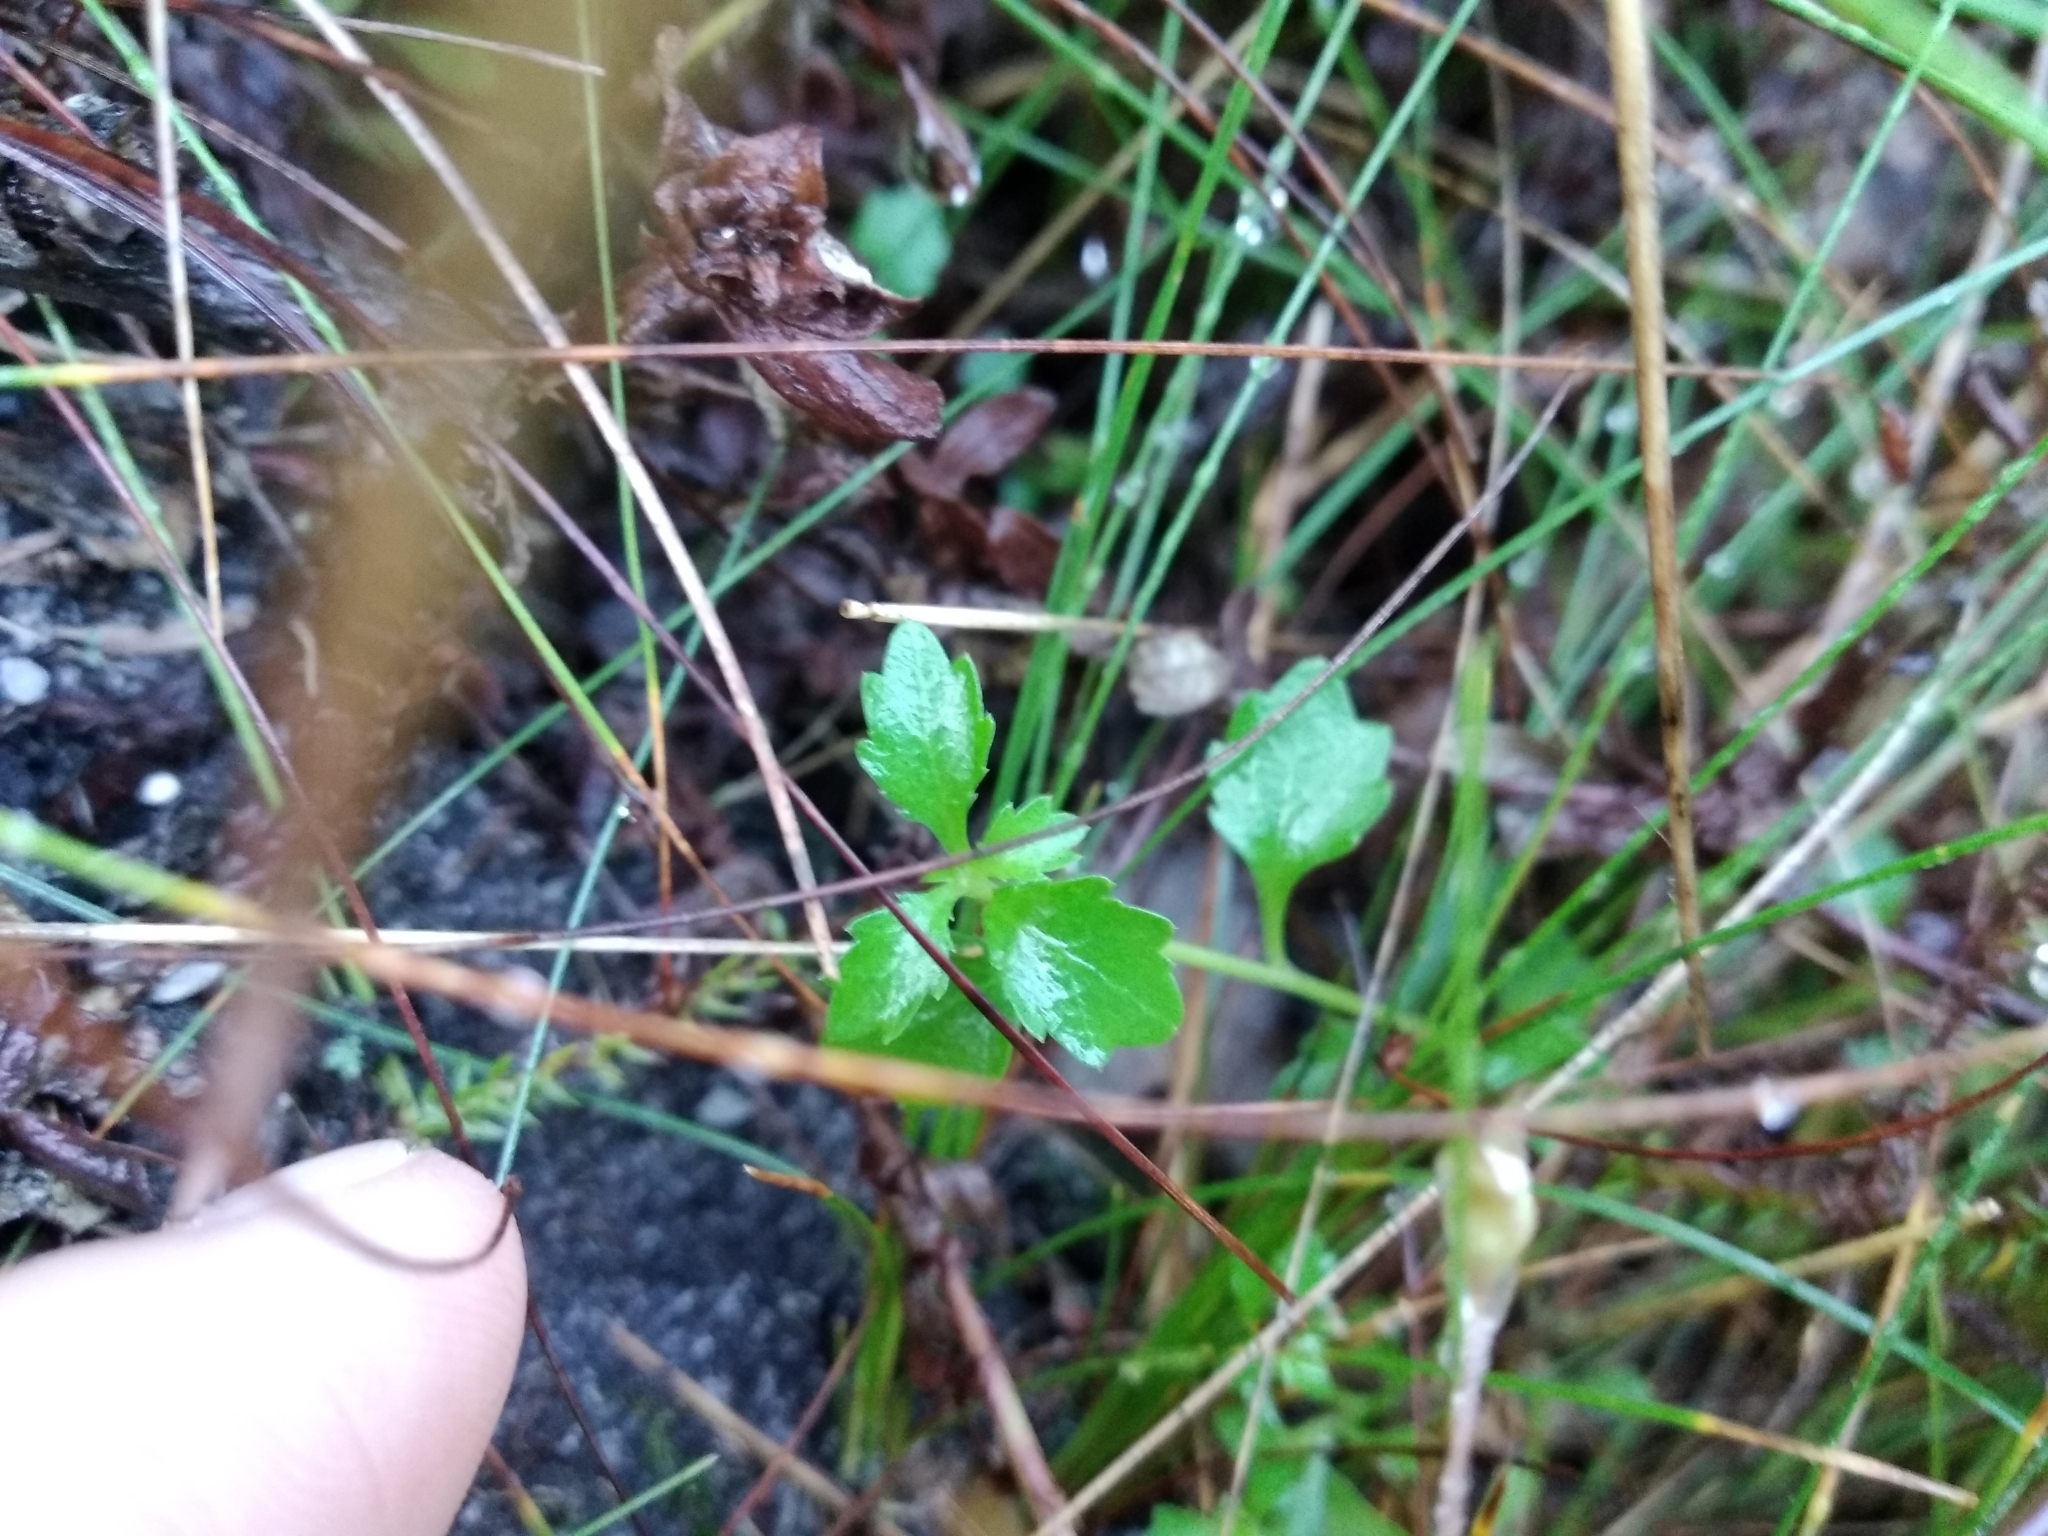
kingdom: Plantae
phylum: Tracheophyta
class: Magnoliopsida
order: Asterales
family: Campanulaceae
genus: Lobelia
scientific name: Lobelia eckloniana
